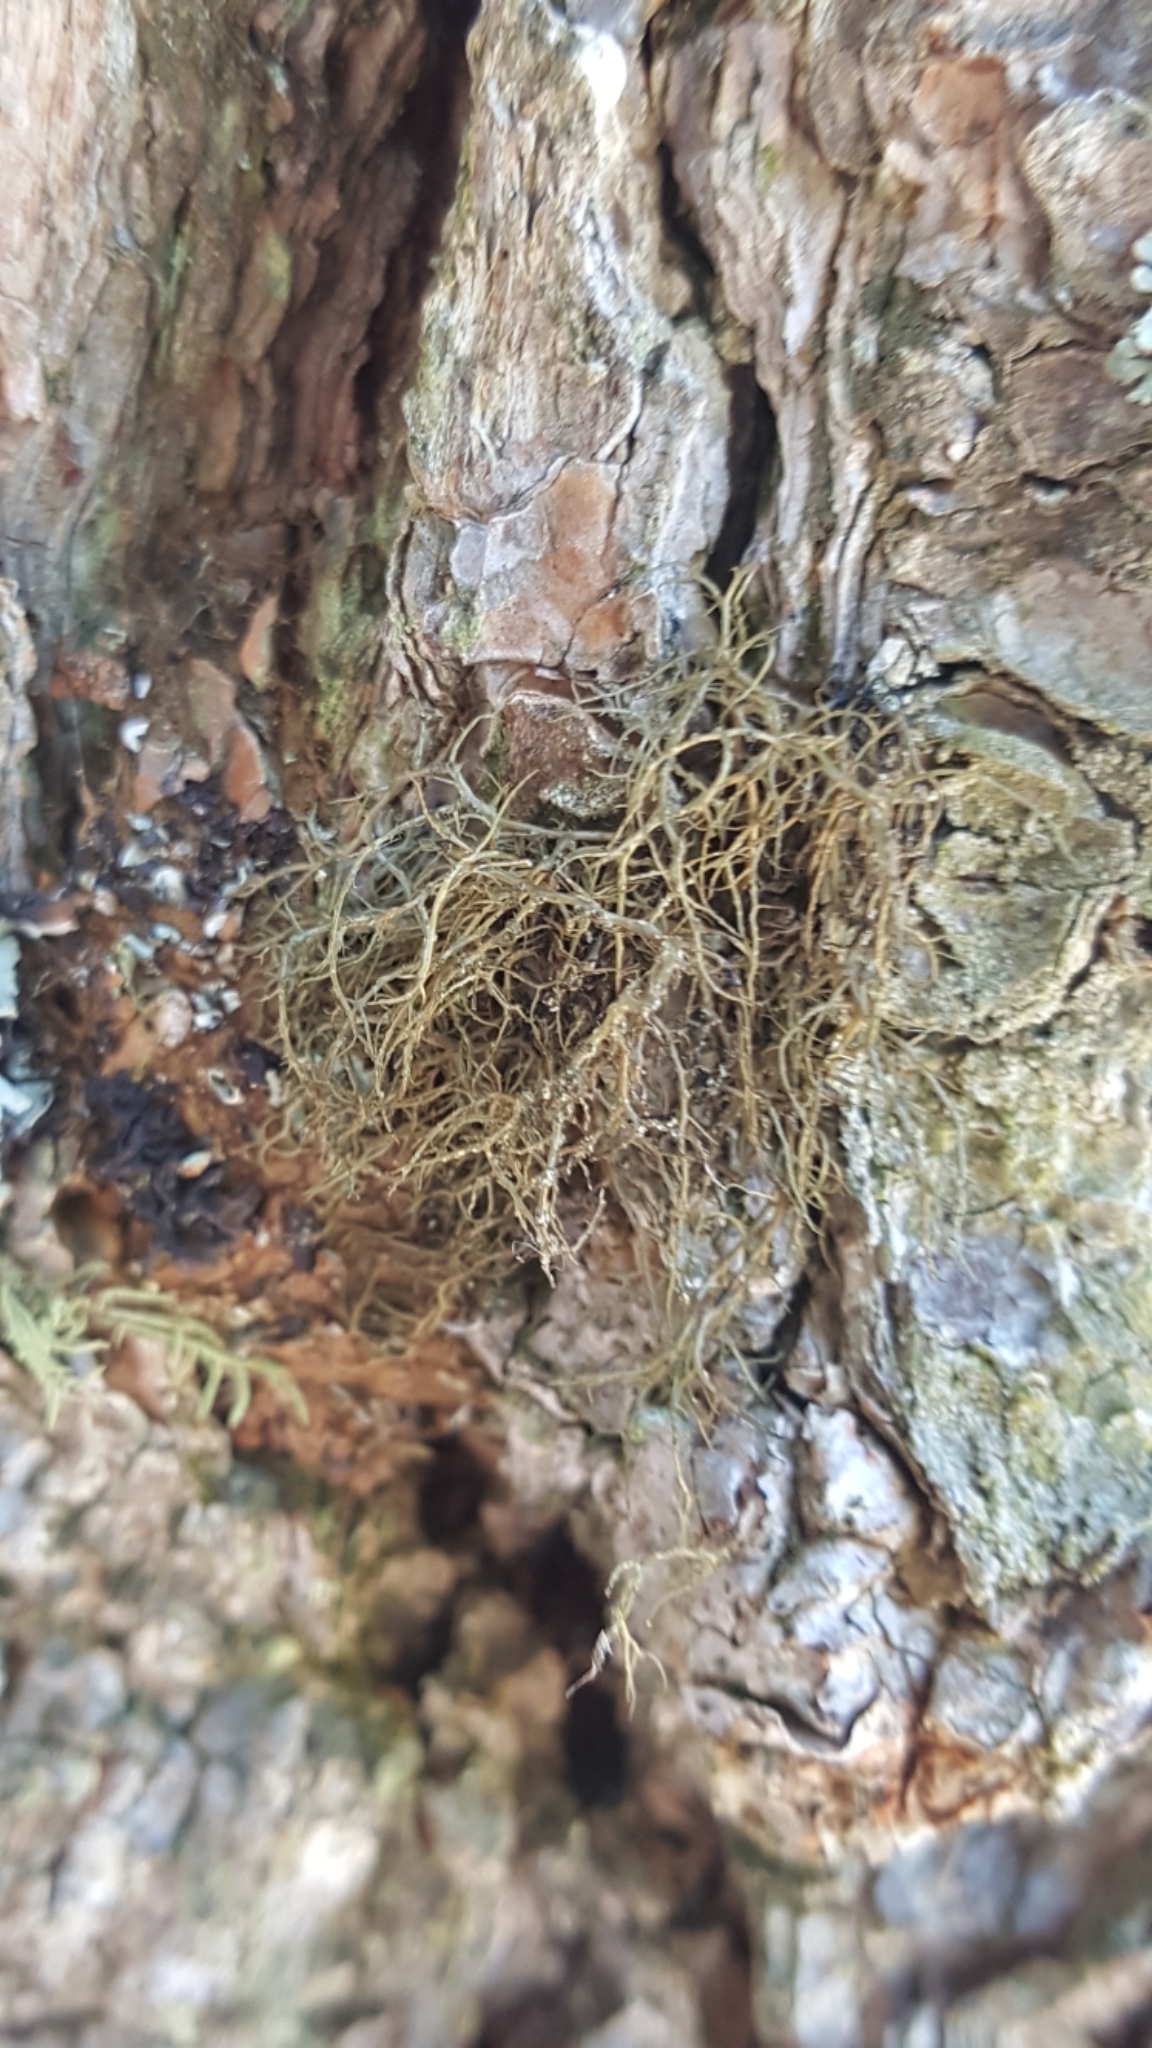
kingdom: Fungi
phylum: Ascomycota
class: Lecanoromycetes
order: Lecanorales
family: Parmeliaceae
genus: Bryoria
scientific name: Bryoria furcellata
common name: Forked hair-lichen
